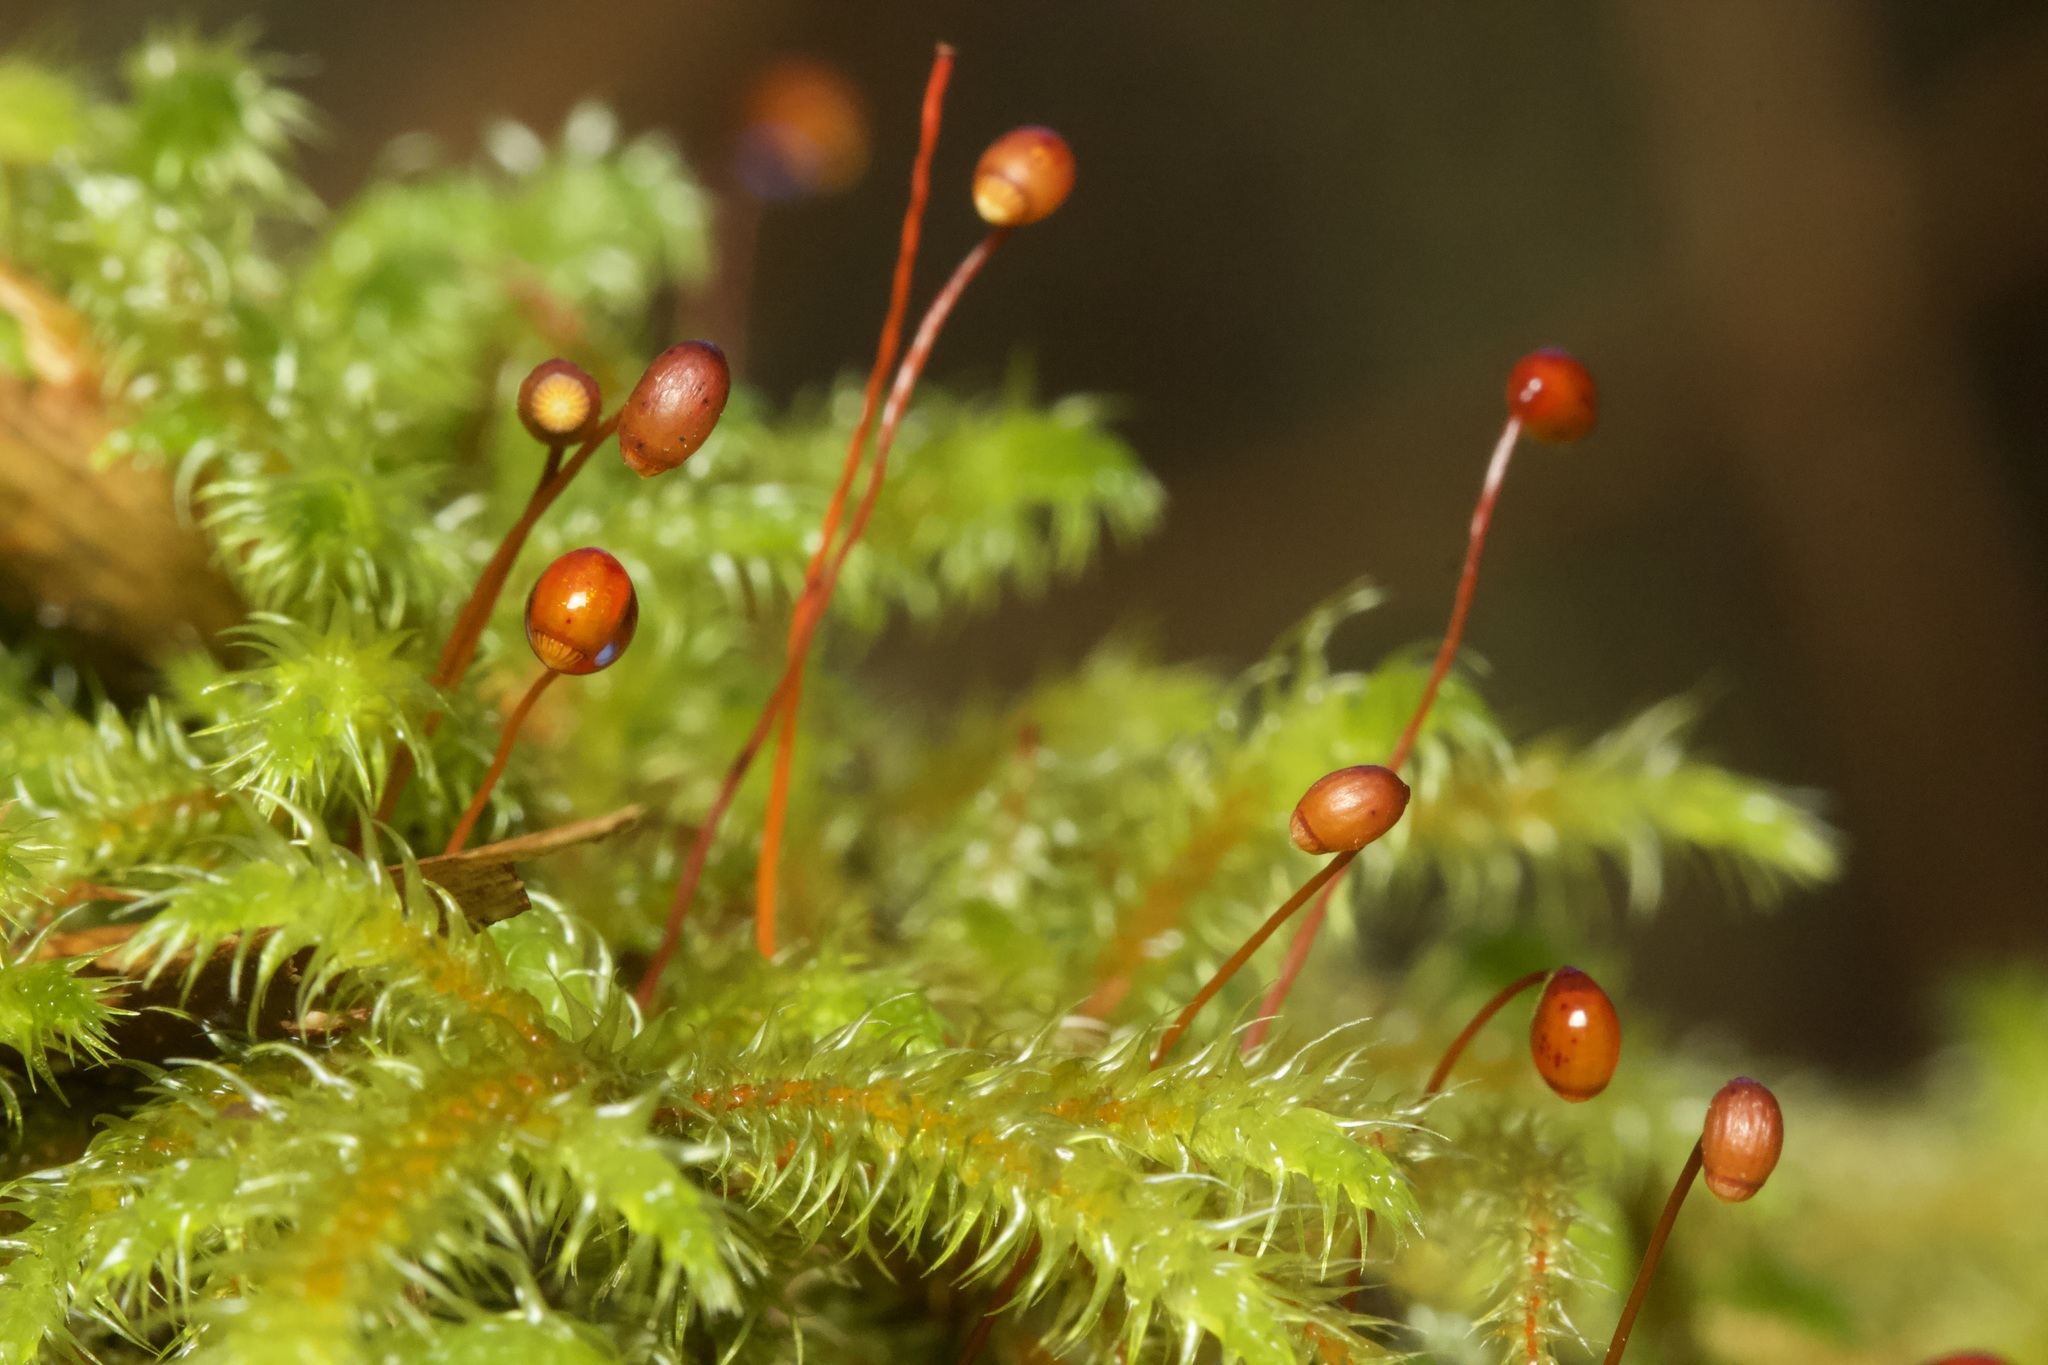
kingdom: Plantae
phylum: Bryophyta
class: Bryopsida
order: Hypnales
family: Hylocomiaceae
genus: Rhytidiadelphus
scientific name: Rhytidiadelphus loreus
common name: Lanky moss
